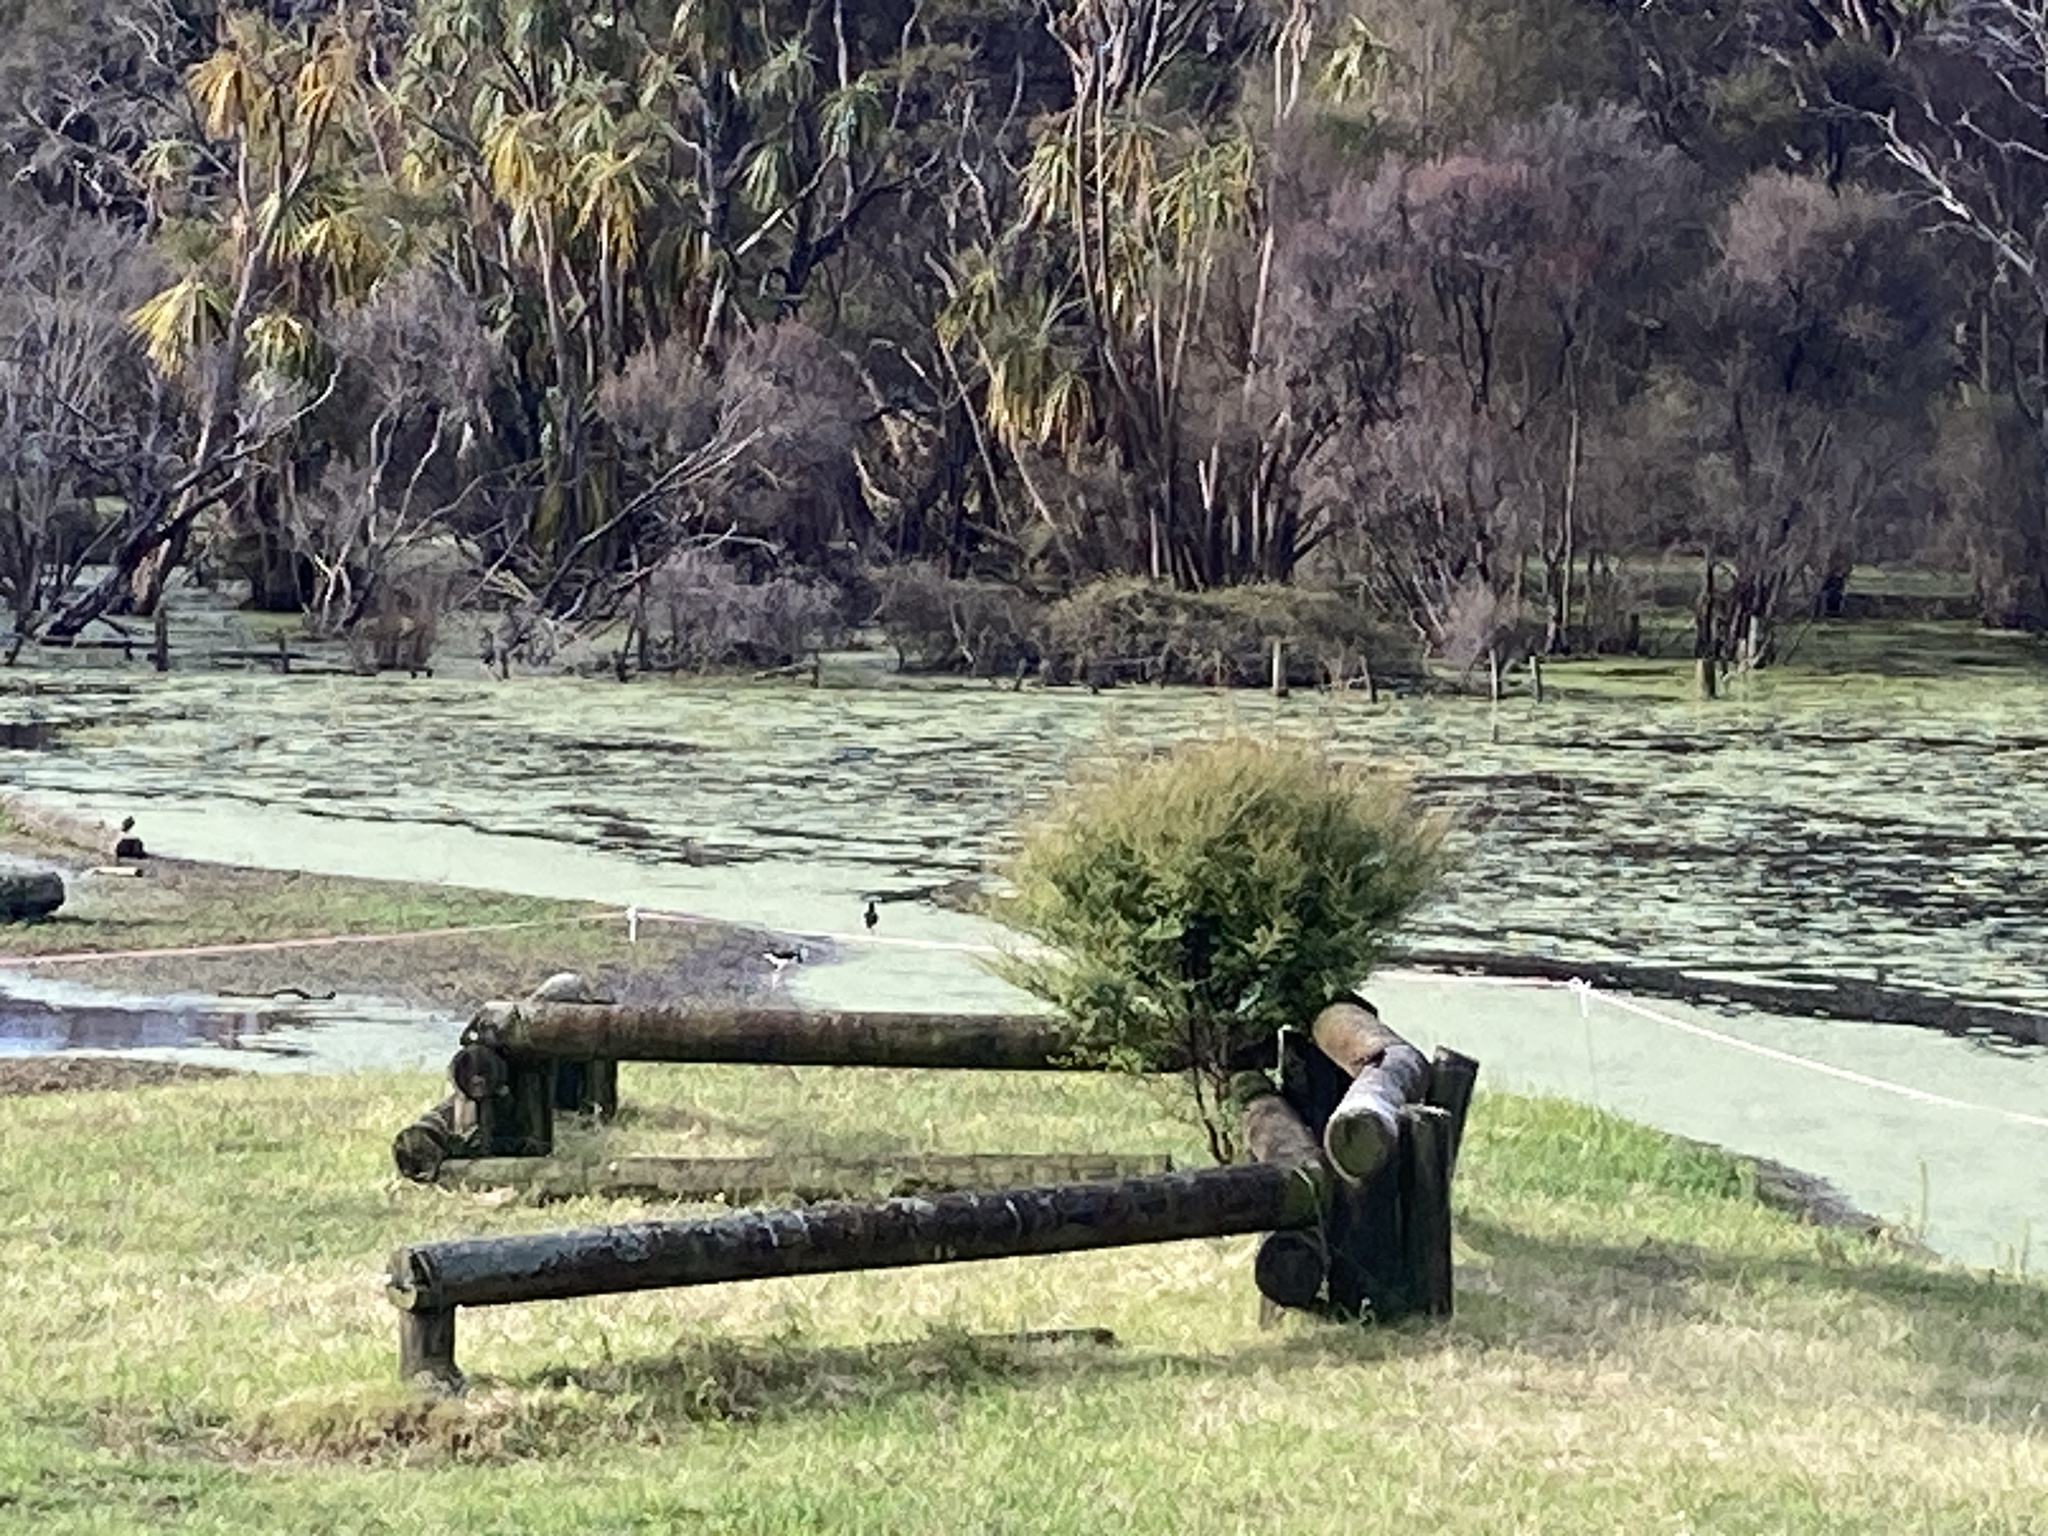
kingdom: Animalia
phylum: Chordata
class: Aves
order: Charadriiformes
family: Recurvirostridae
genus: Himantopus
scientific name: Himantopus leucocephalus
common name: White-headed stilt
